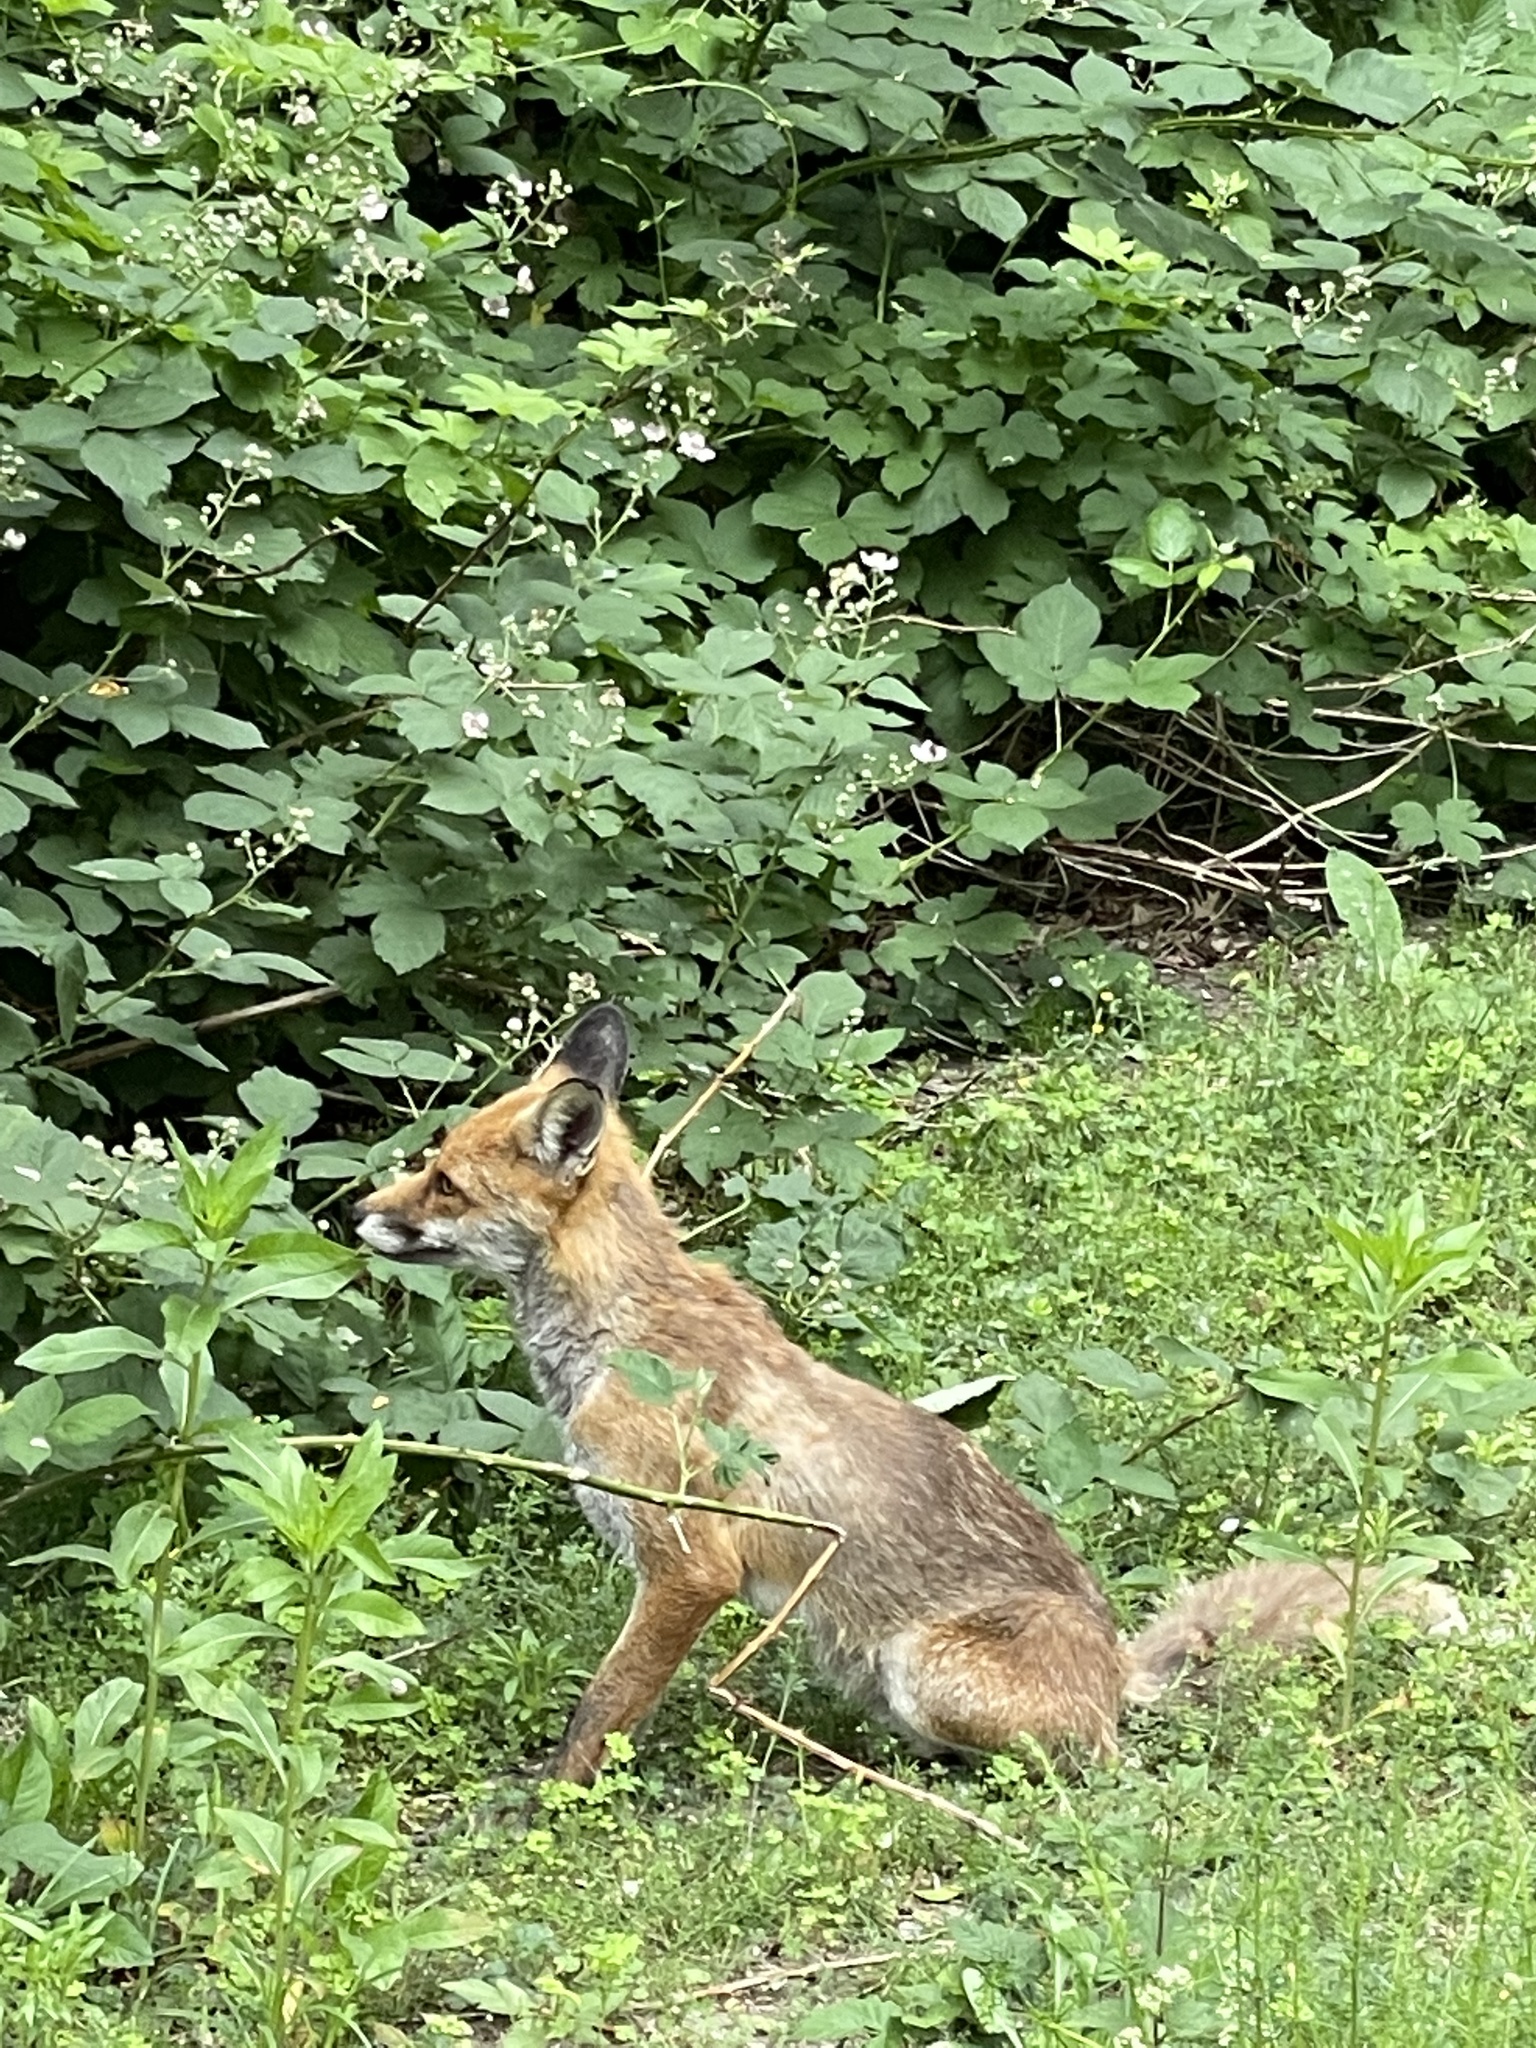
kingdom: Animalia
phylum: Chordata
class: Mammalia
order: Carnivora
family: Canidae
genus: Vulpes
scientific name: Vulpes vulpes
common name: Red fox
